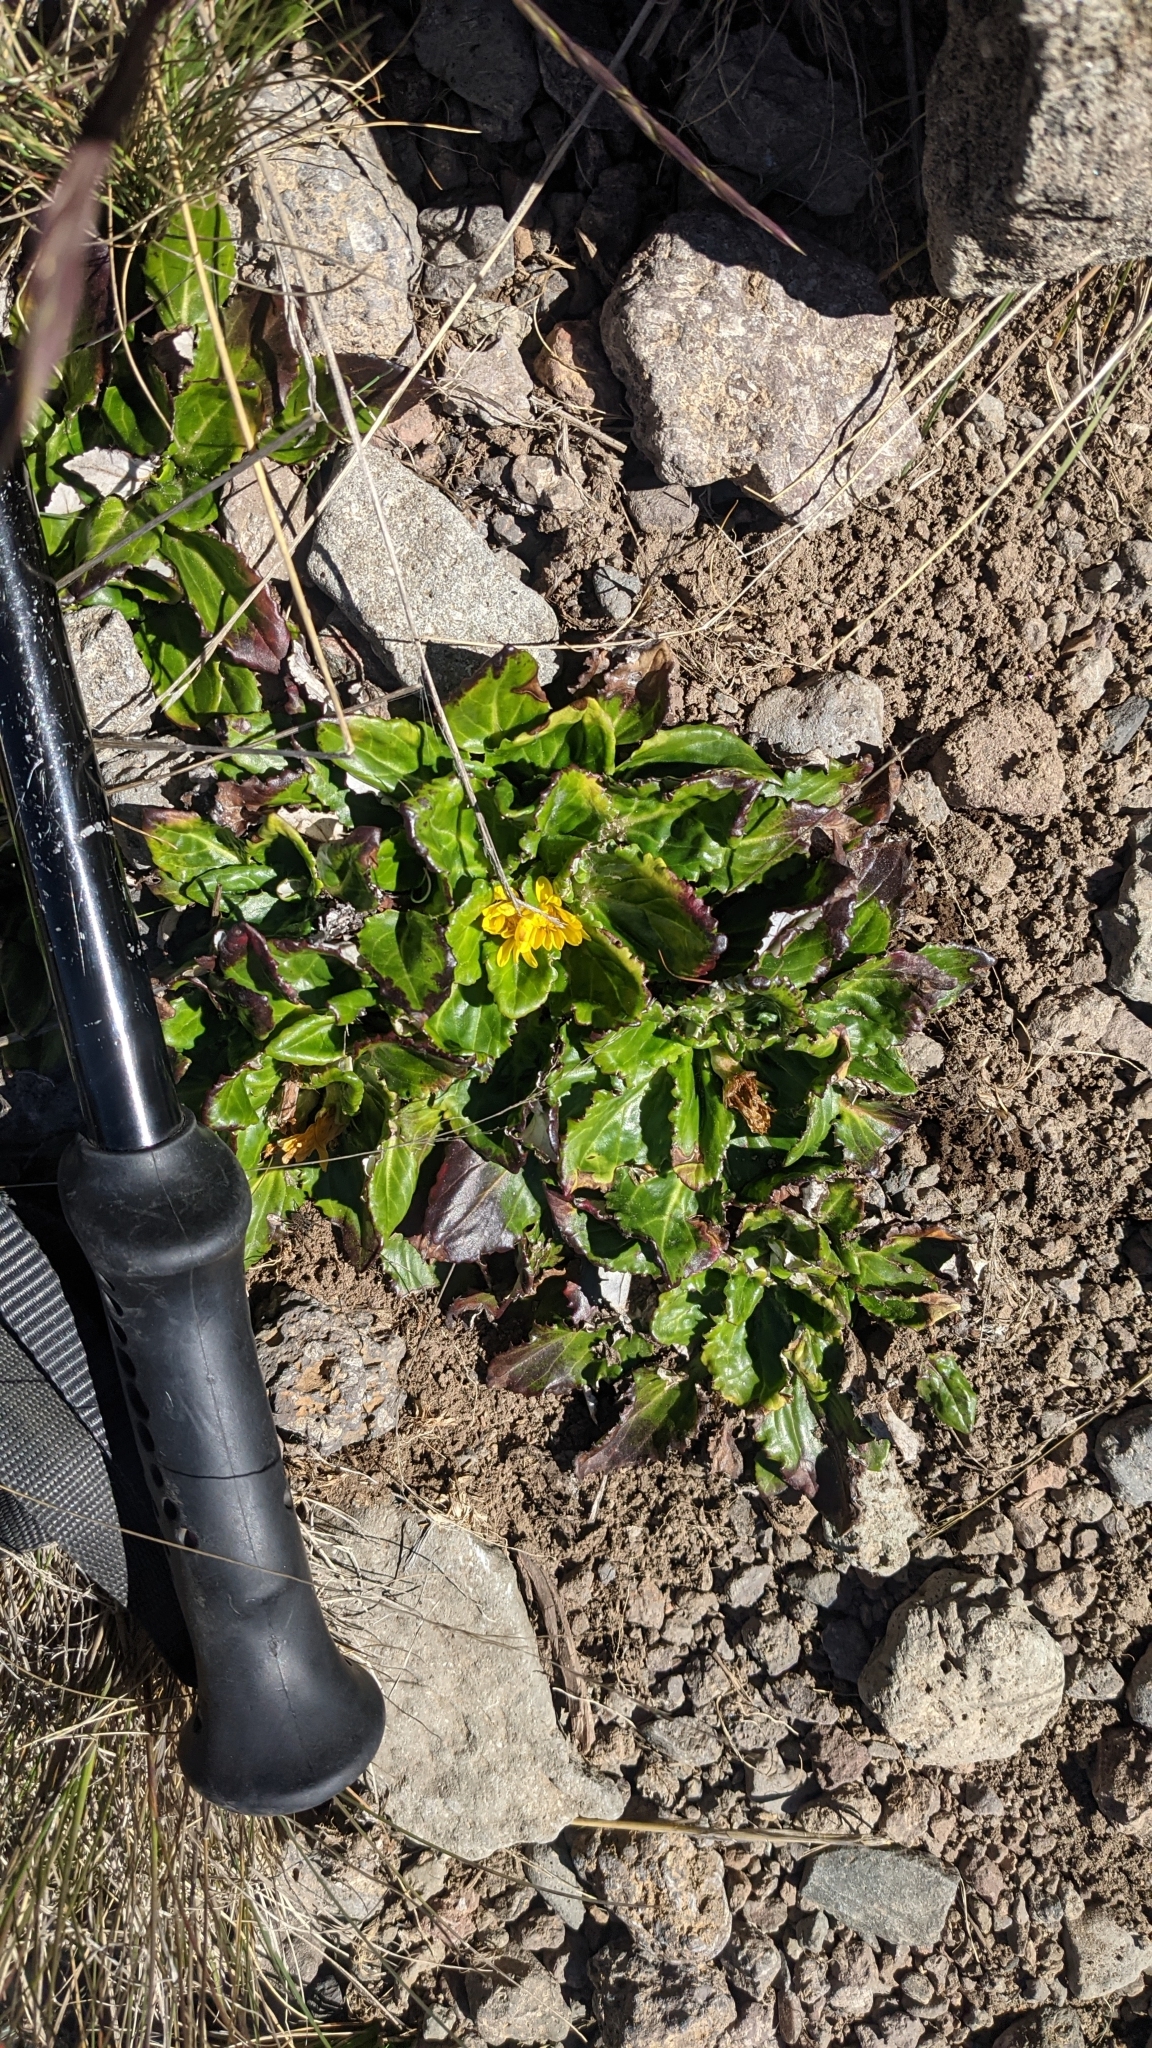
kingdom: Plantae
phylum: Tracheophyta
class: Magnoliopsida
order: Asterales
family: Asteraceae
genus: Haplocarpha
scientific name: Haplocarpha rueppelii
